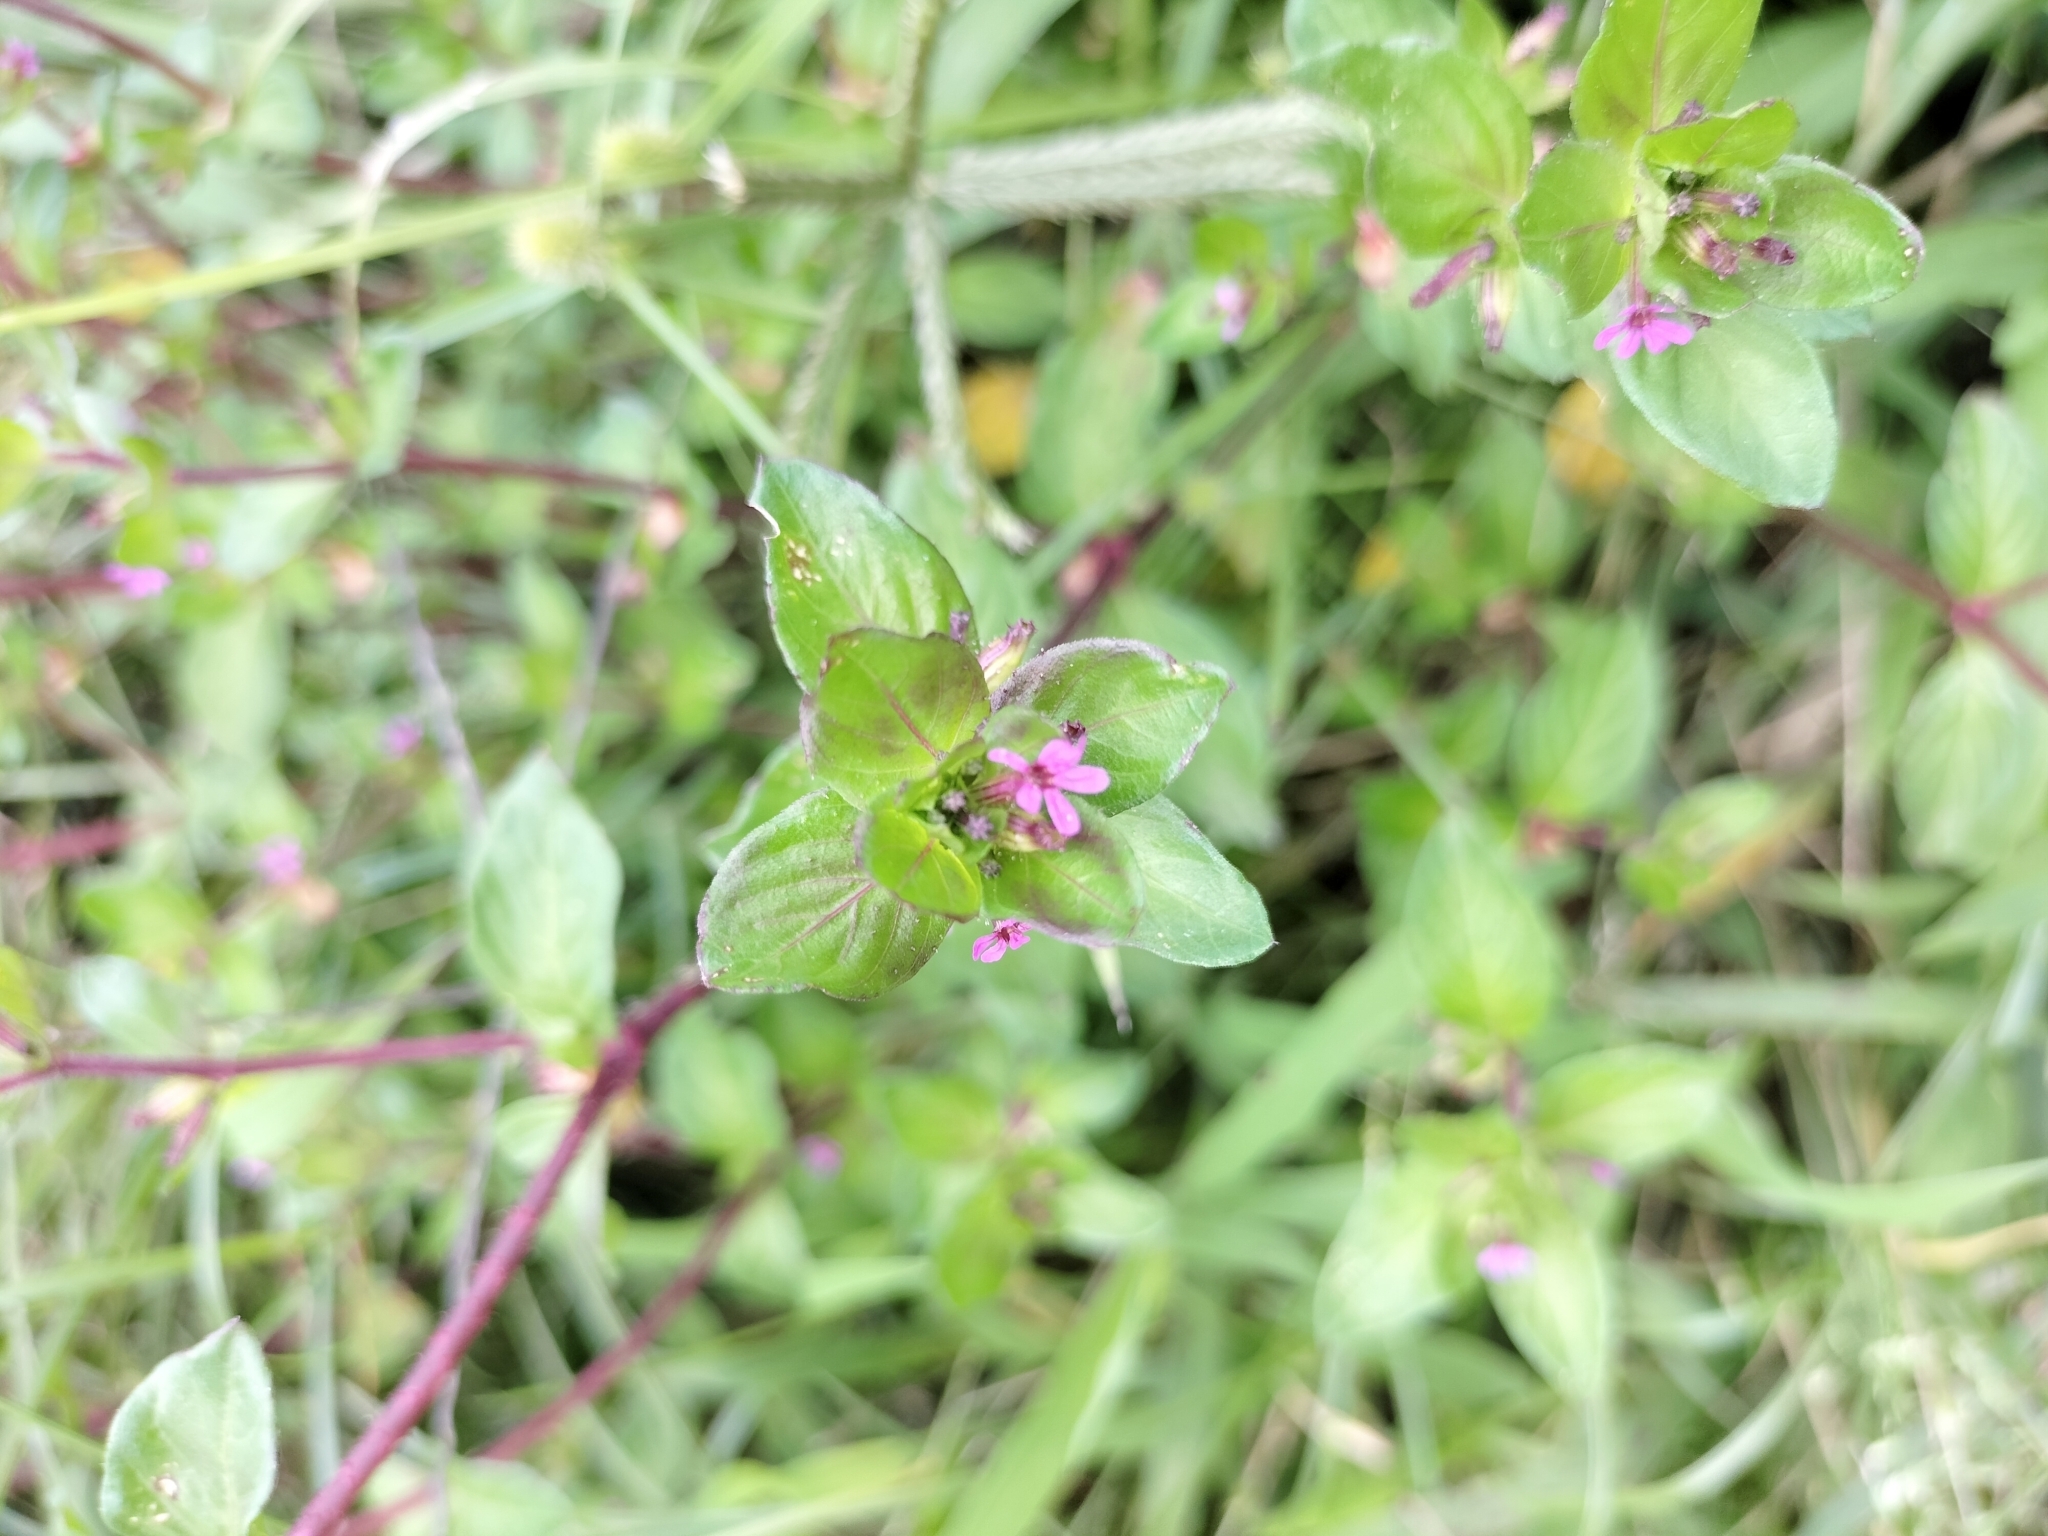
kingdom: Plantae
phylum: Tracheophyta
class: Magnoliopsida
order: Myrtales
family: Lythraceae
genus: Cuphea
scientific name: Cuphea carthagenensis
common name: Colombian waxweed
